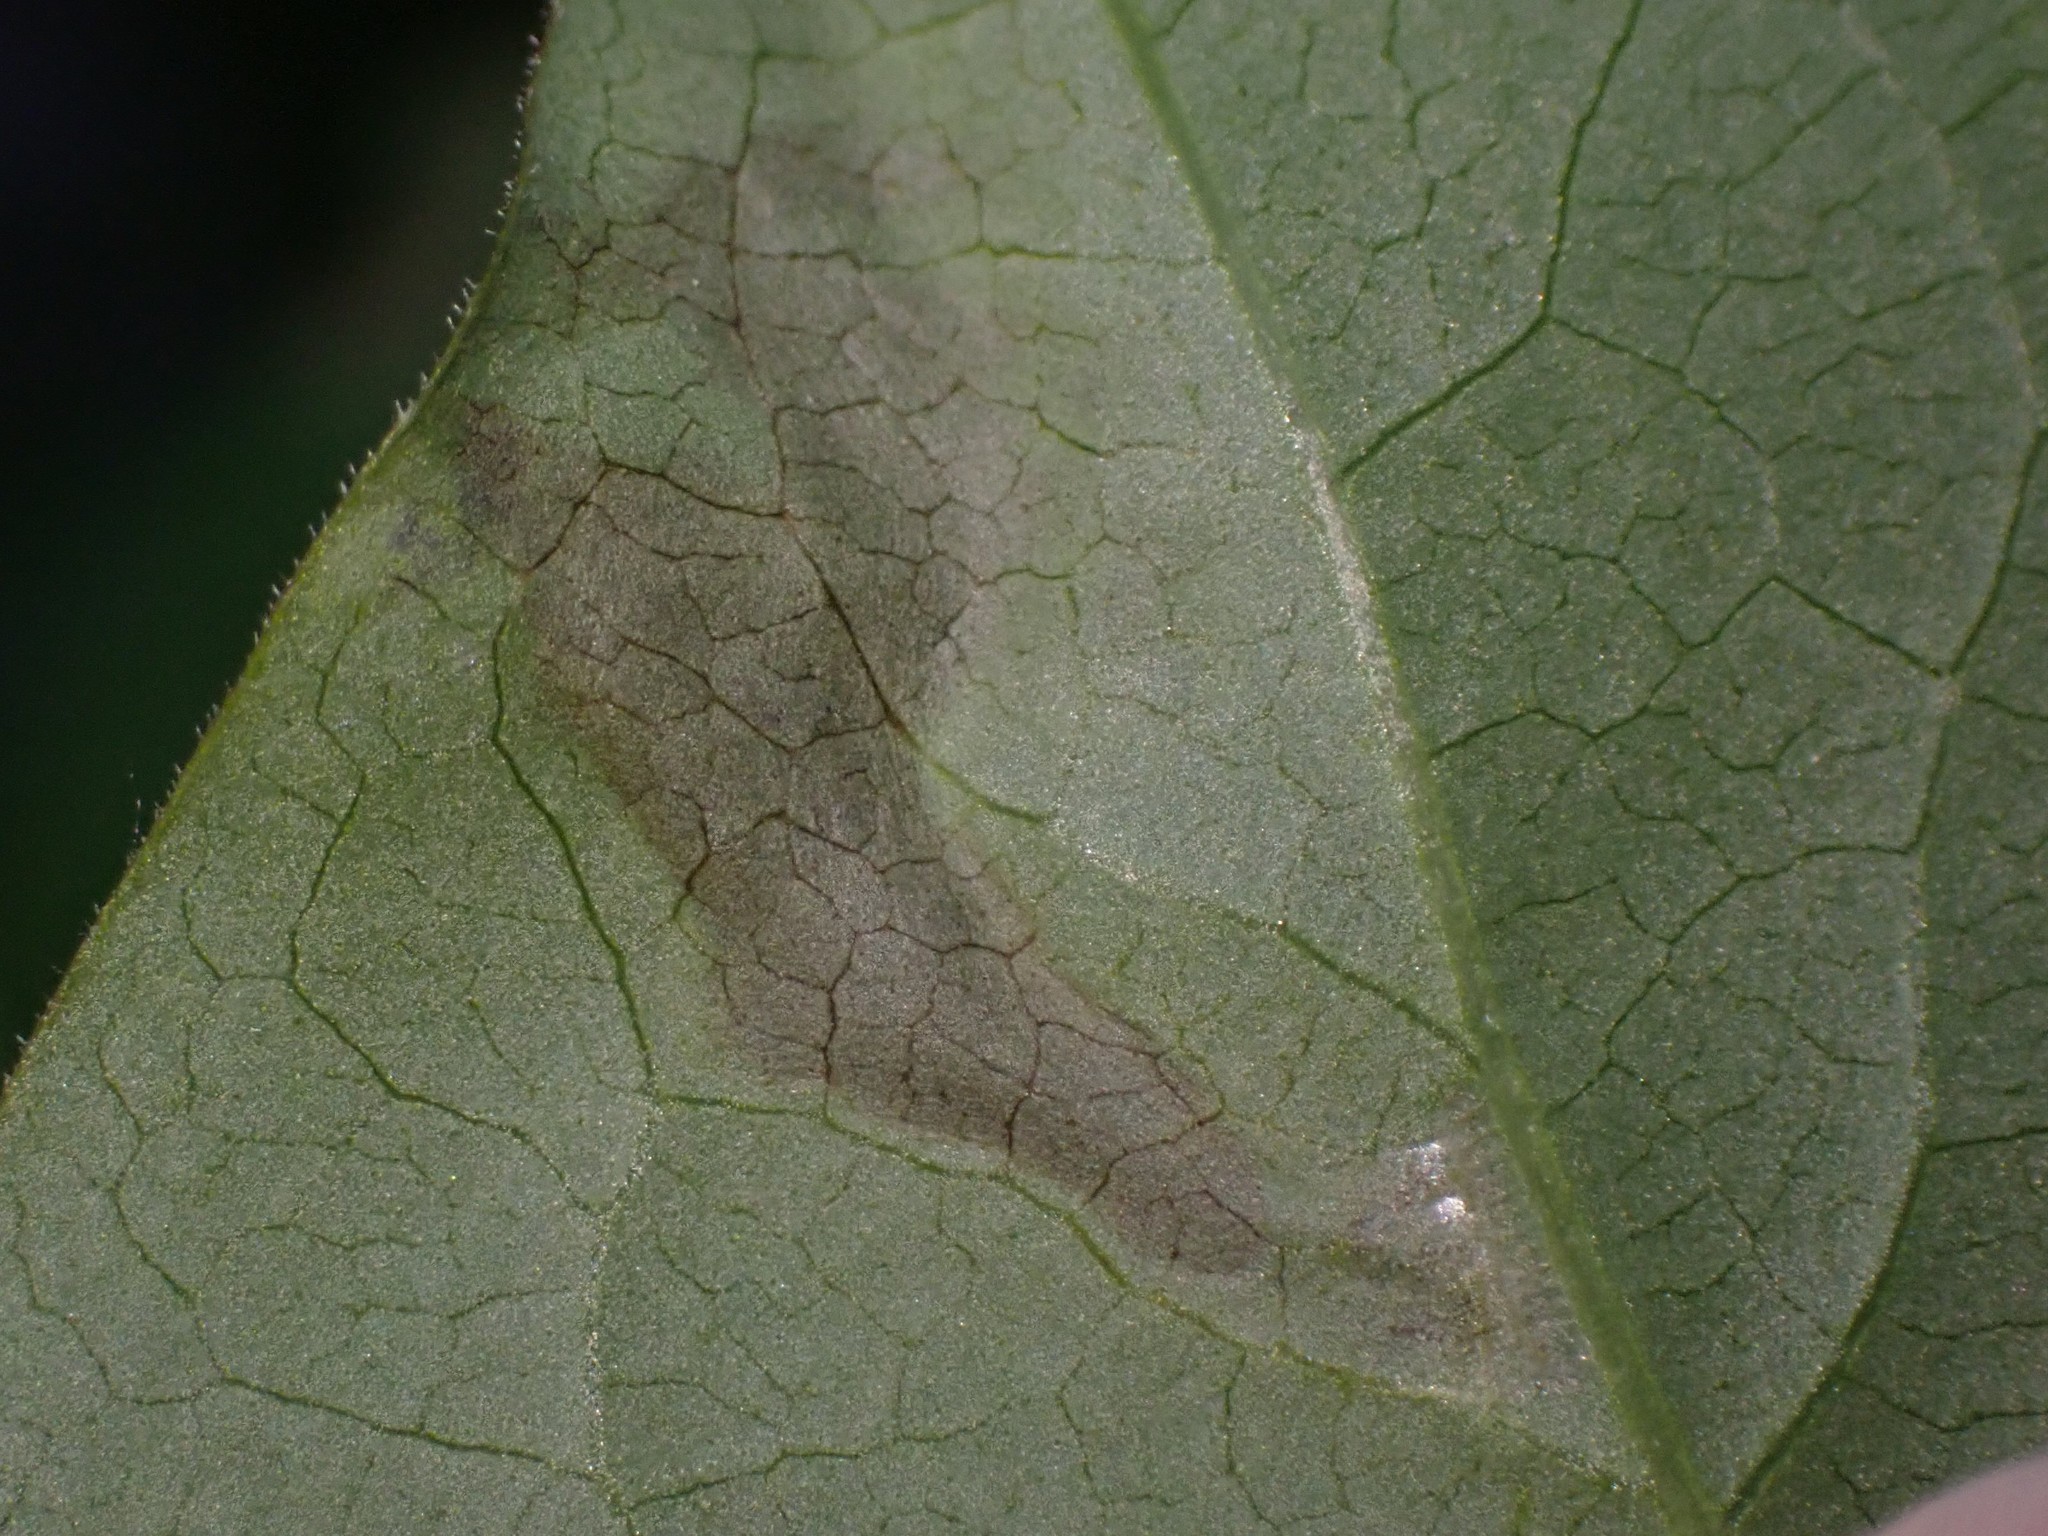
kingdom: Animalia
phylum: Arthropoda
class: Insecta
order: Lepidoptera
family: Gracillariidae
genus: Gracillaria
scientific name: Gracillaria syringella
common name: Common slender
